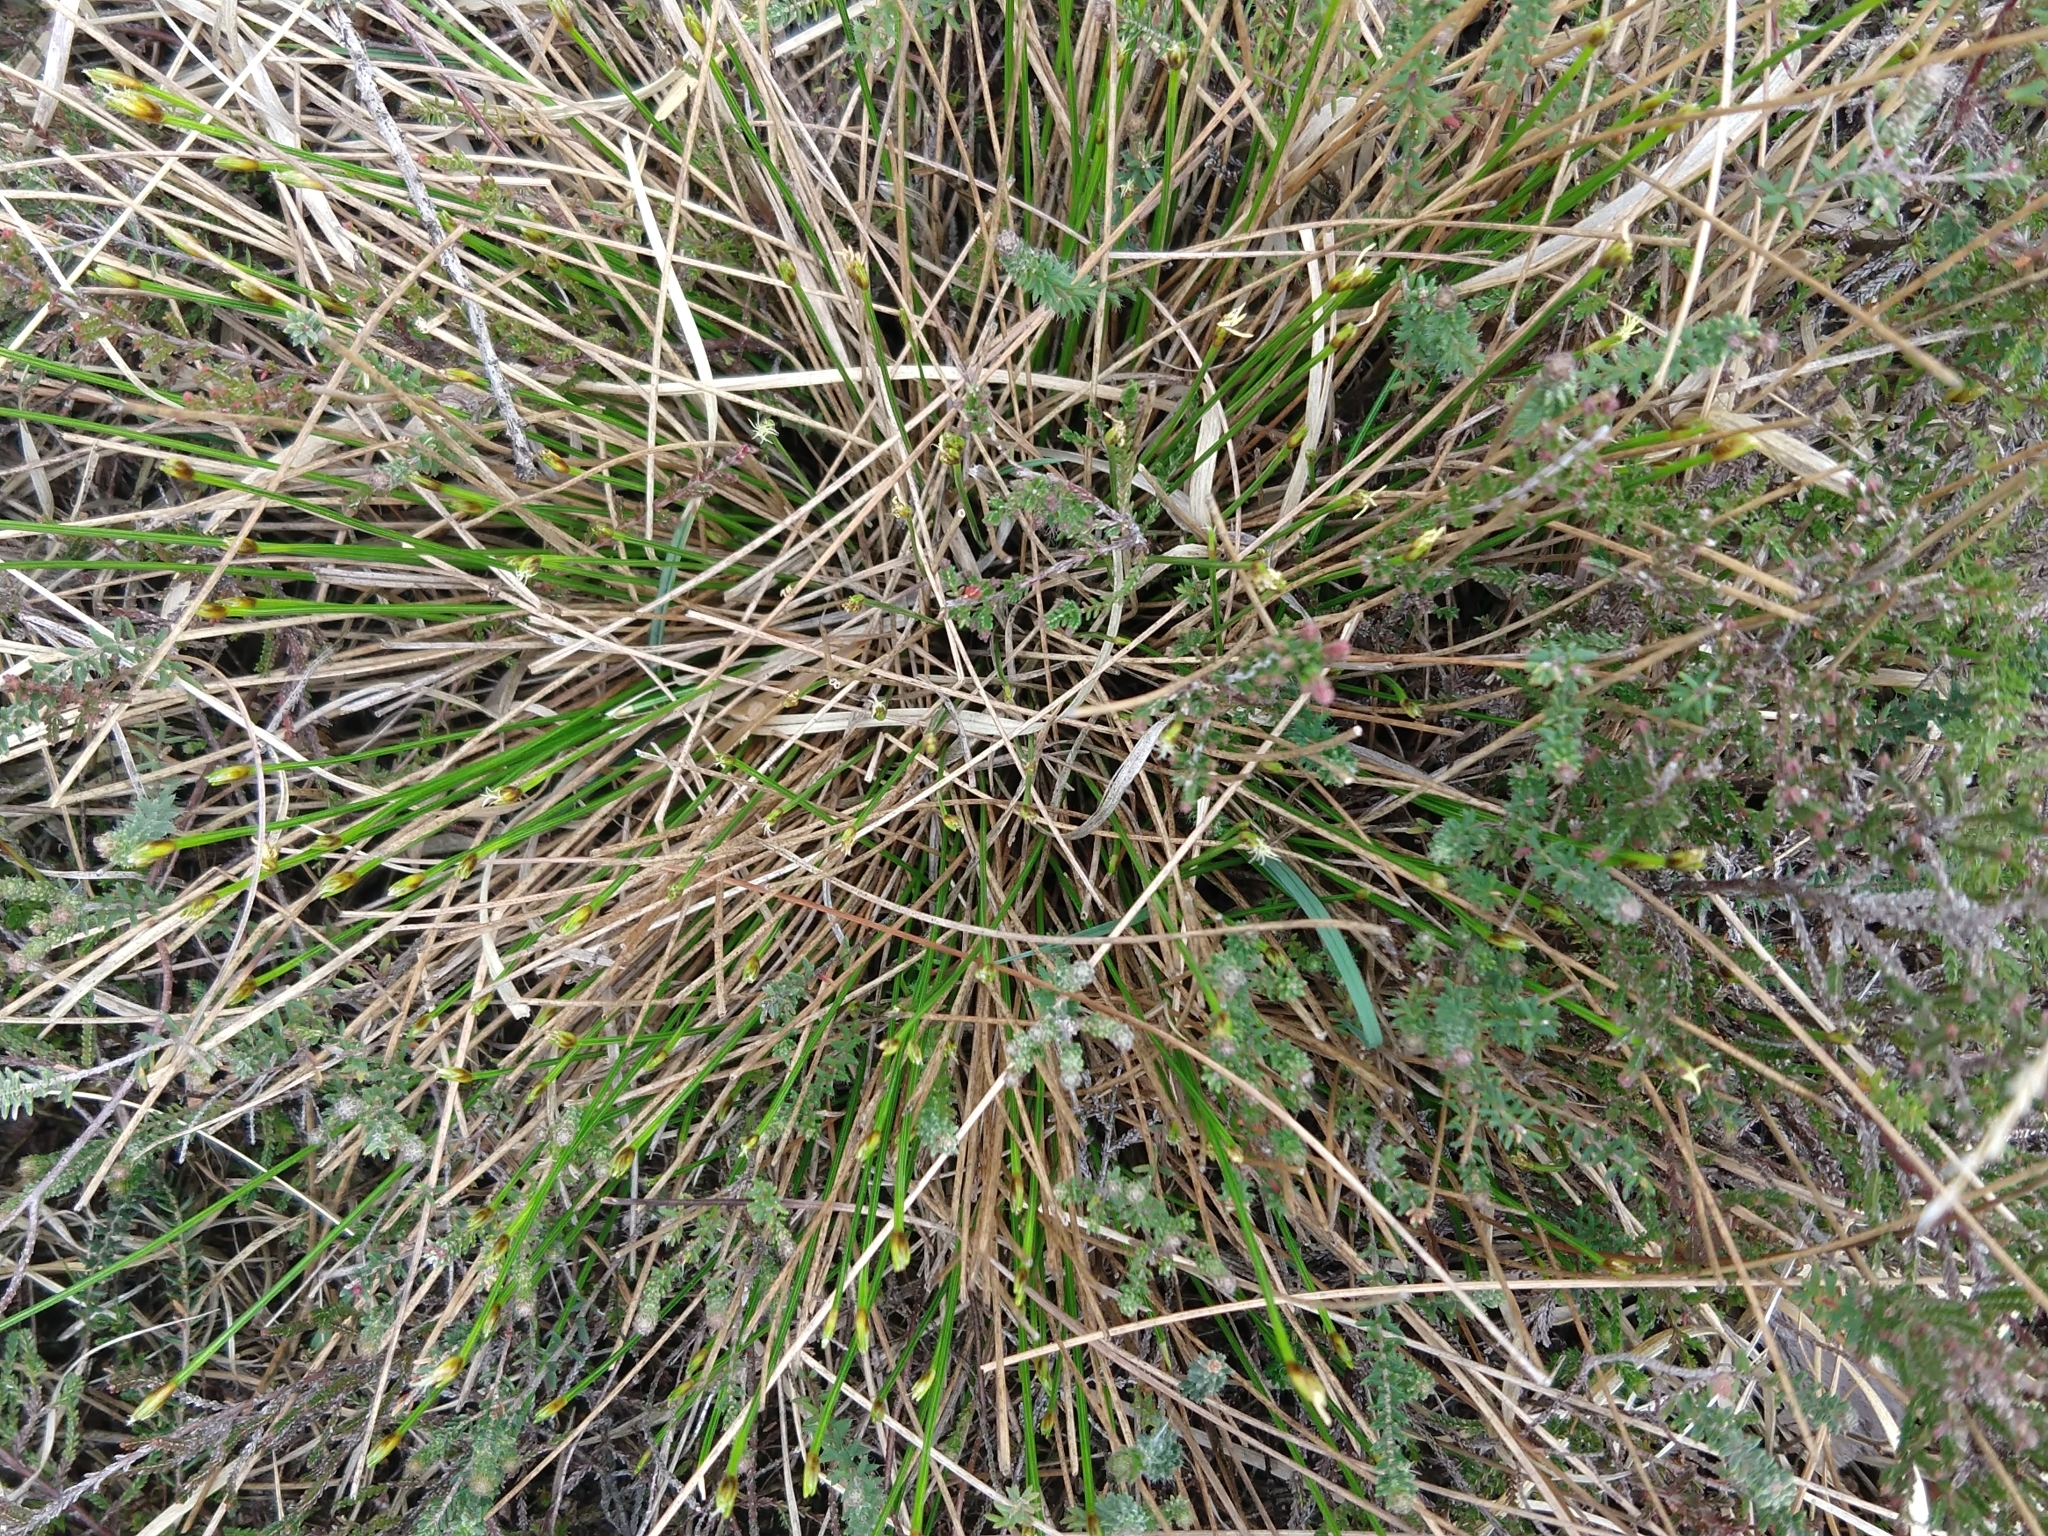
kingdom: Plantae
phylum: Tracheophyta
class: Liliopsida
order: Poales
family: Cyperaceae
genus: Trichophorum
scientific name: Trichophorum cespitosum
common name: Cespitose bulrush
